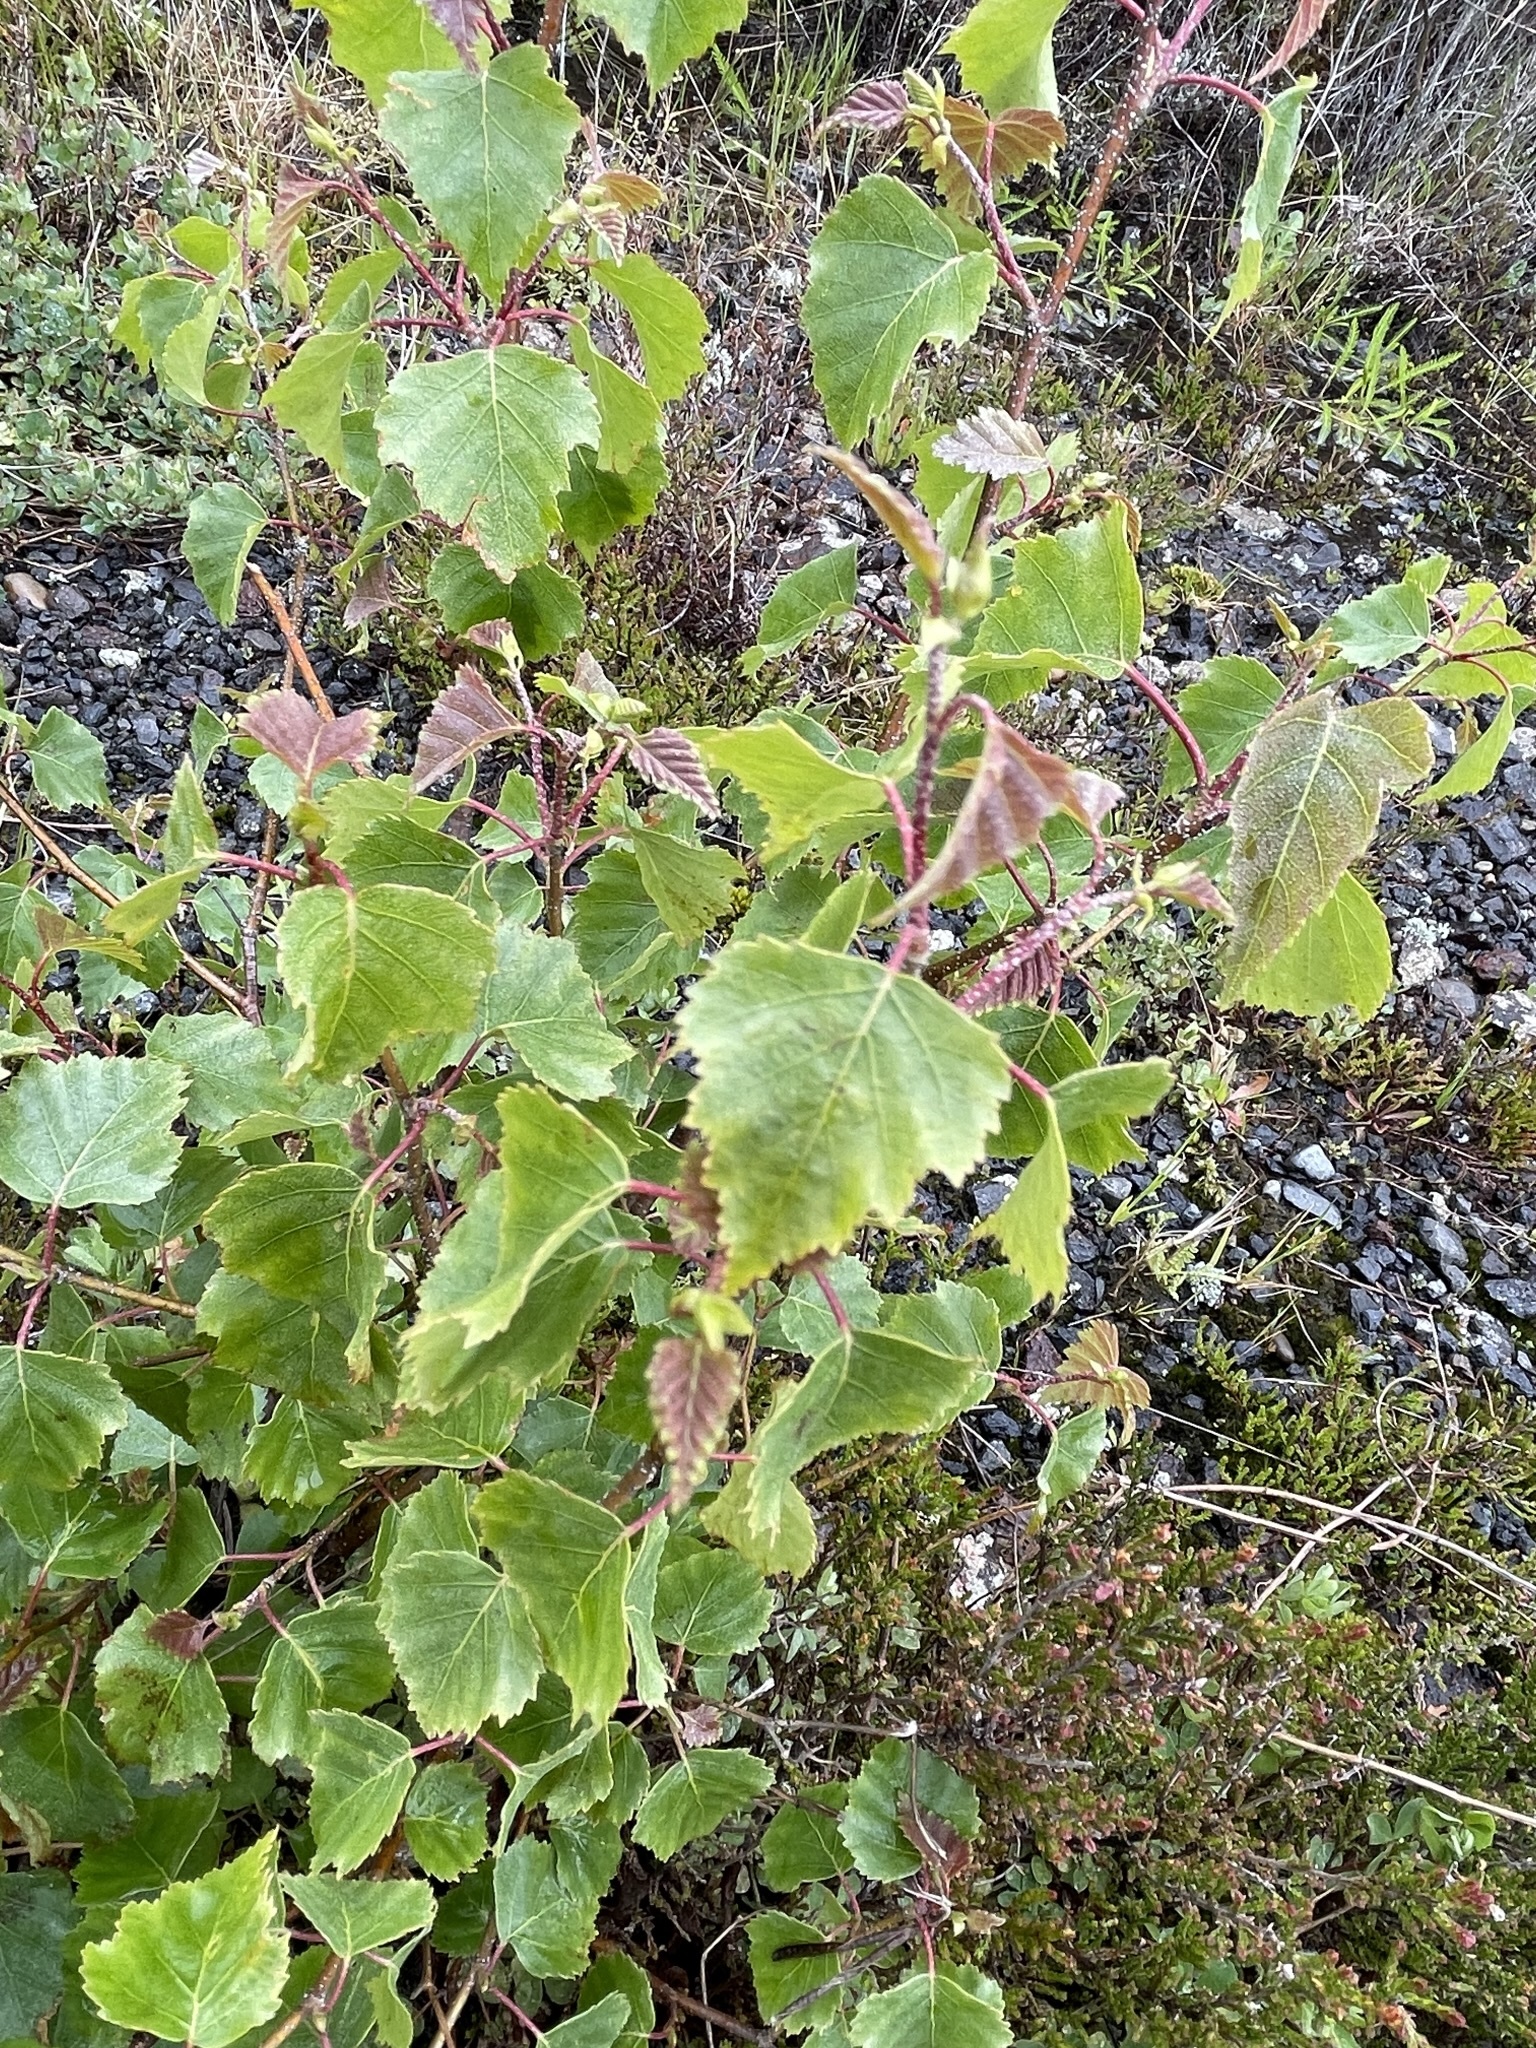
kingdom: Plantae
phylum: Tracheophyta
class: Magnoliopsida
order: Fagales
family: Betulaceae
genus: Betula
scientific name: Betula pendula
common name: Silver birch
